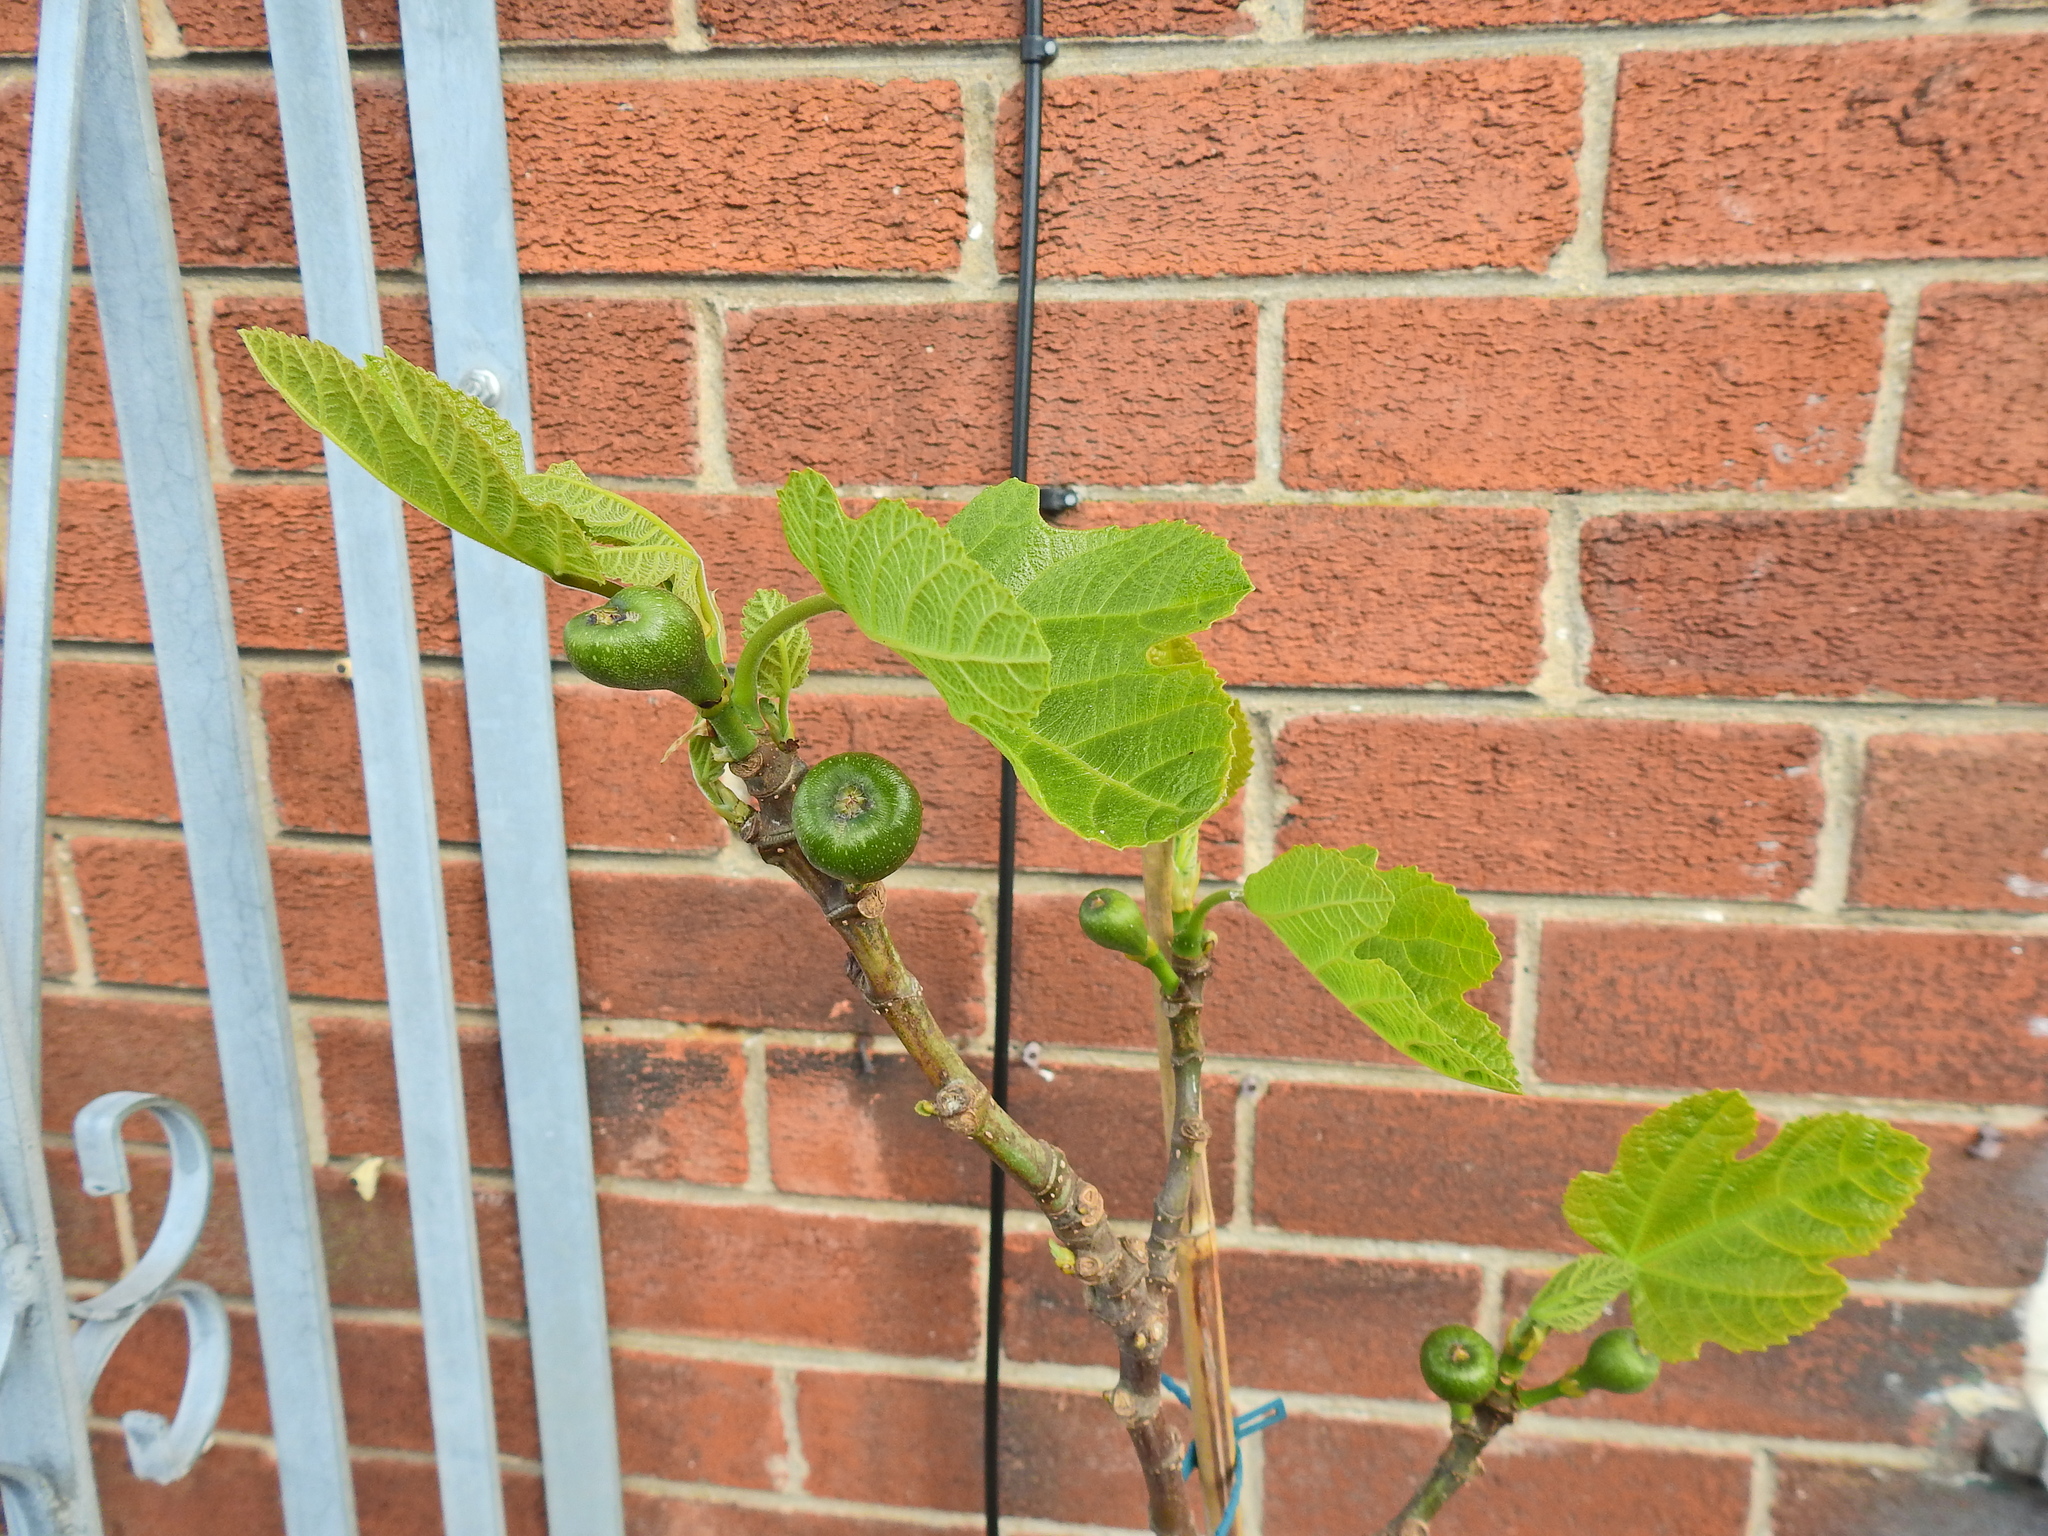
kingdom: Plantae
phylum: Tracheophyta
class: Magnoliopsida
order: Rosales
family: Moraceae
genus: Ficus
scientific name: Ficus carica
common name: Fig
